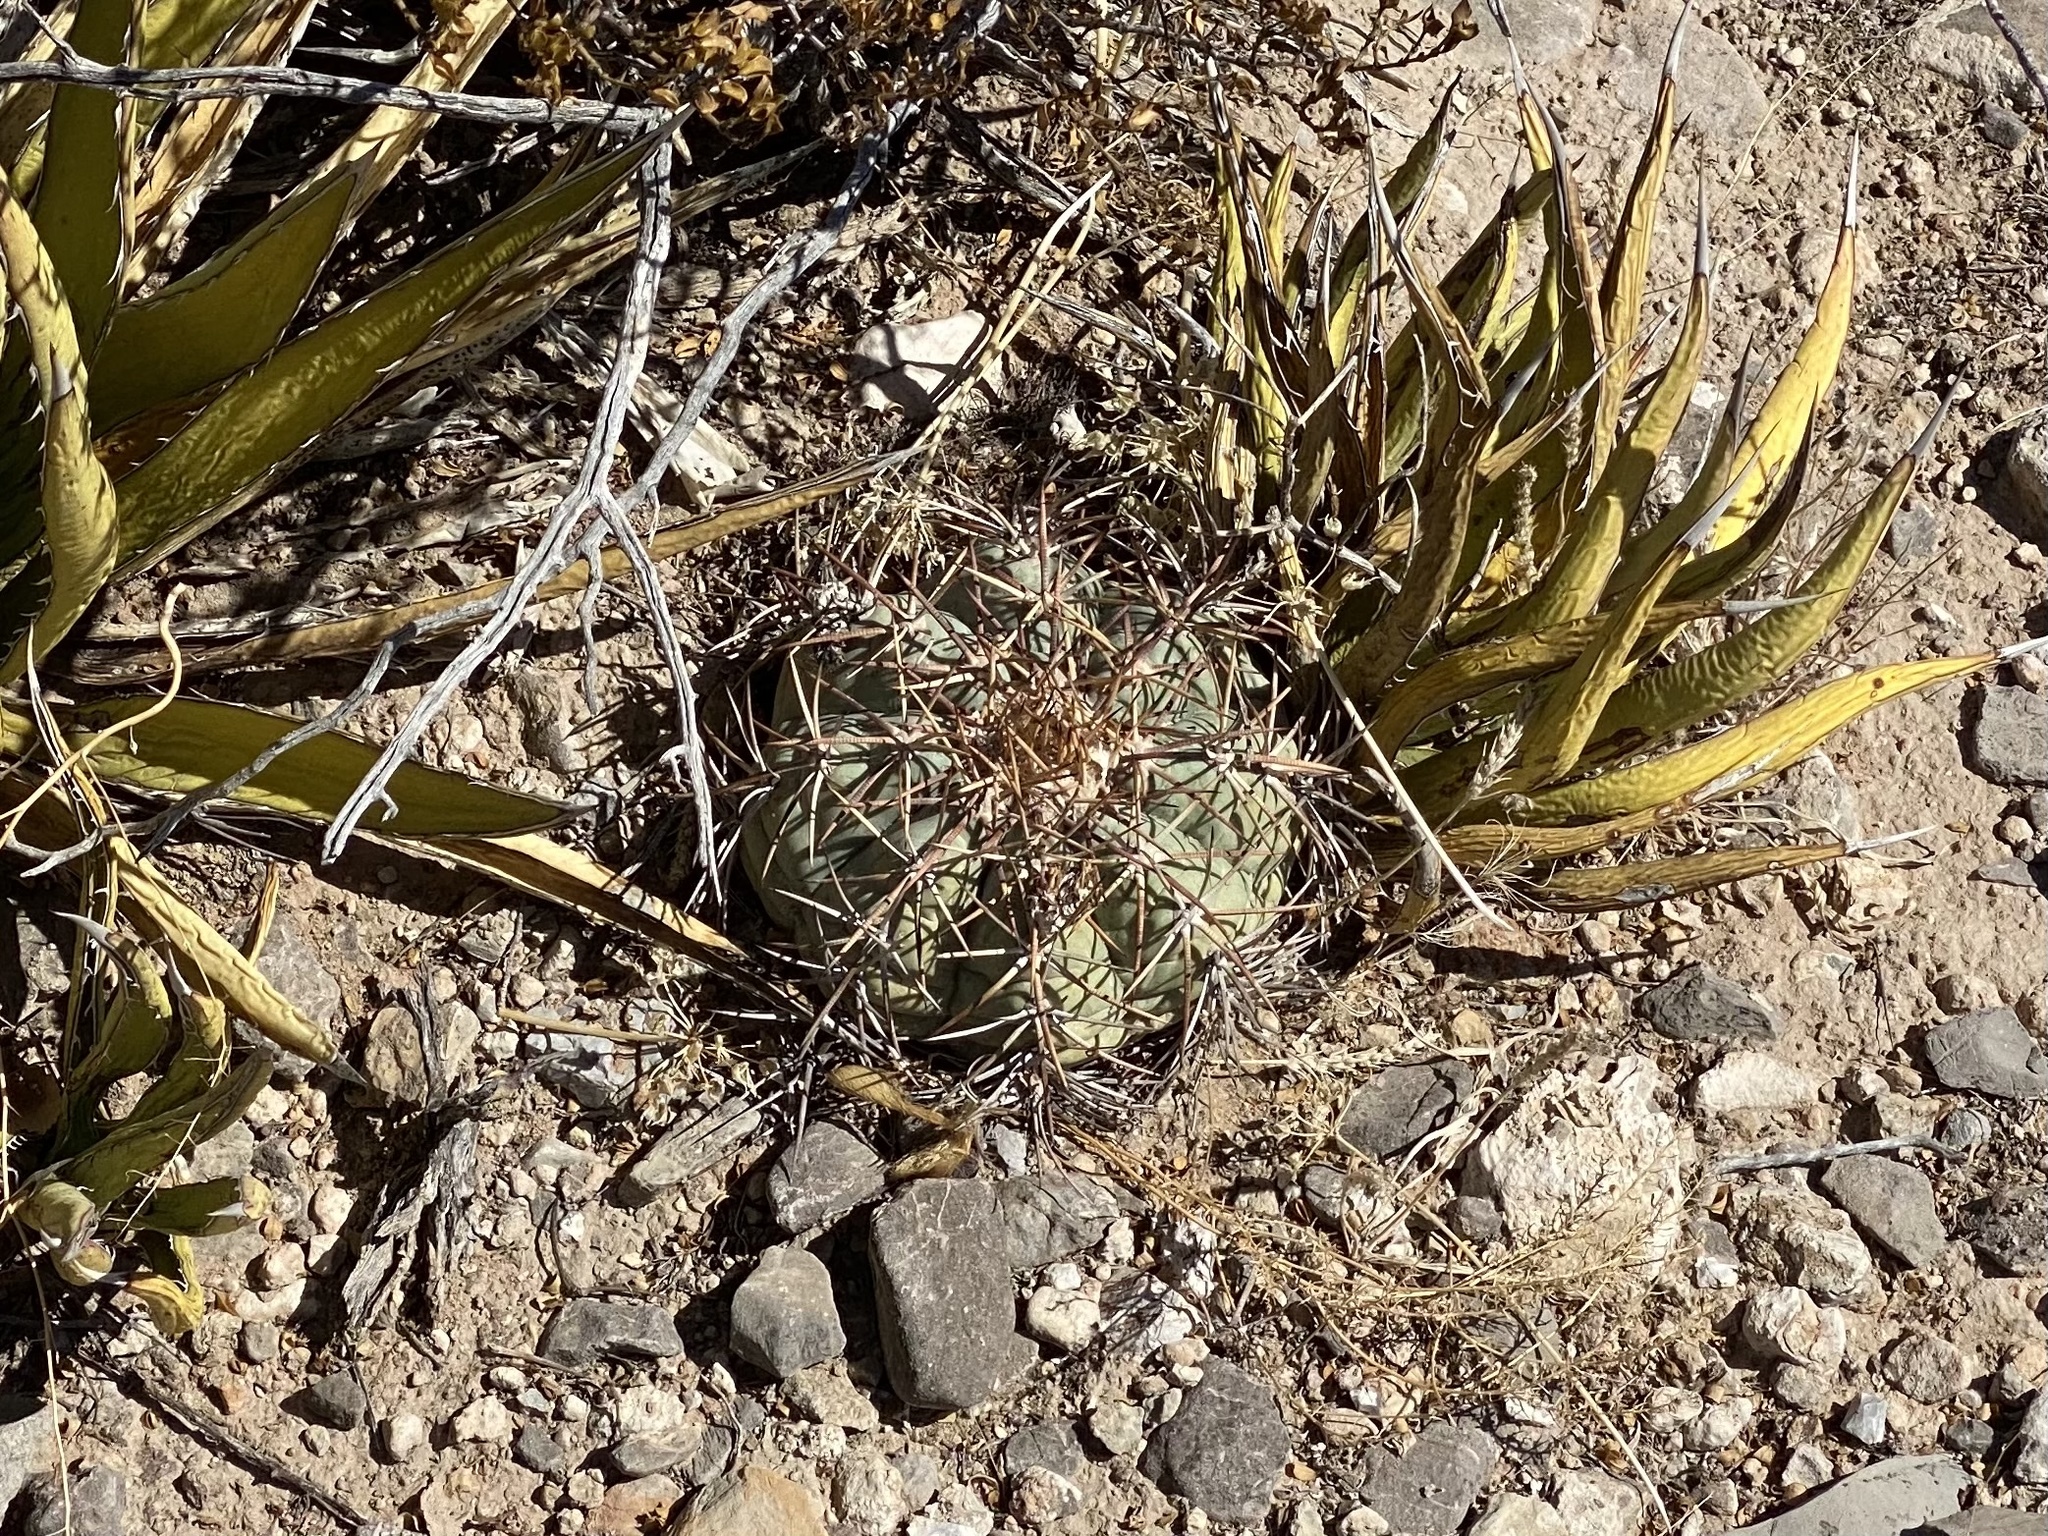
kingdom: Plantae
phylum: Tracheophyta
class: Magnoliopsida
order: Caryophyllales
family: Cactaceae
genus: Echinocactus
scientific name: Echinocactus horizonthalonius
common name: Devilshead
